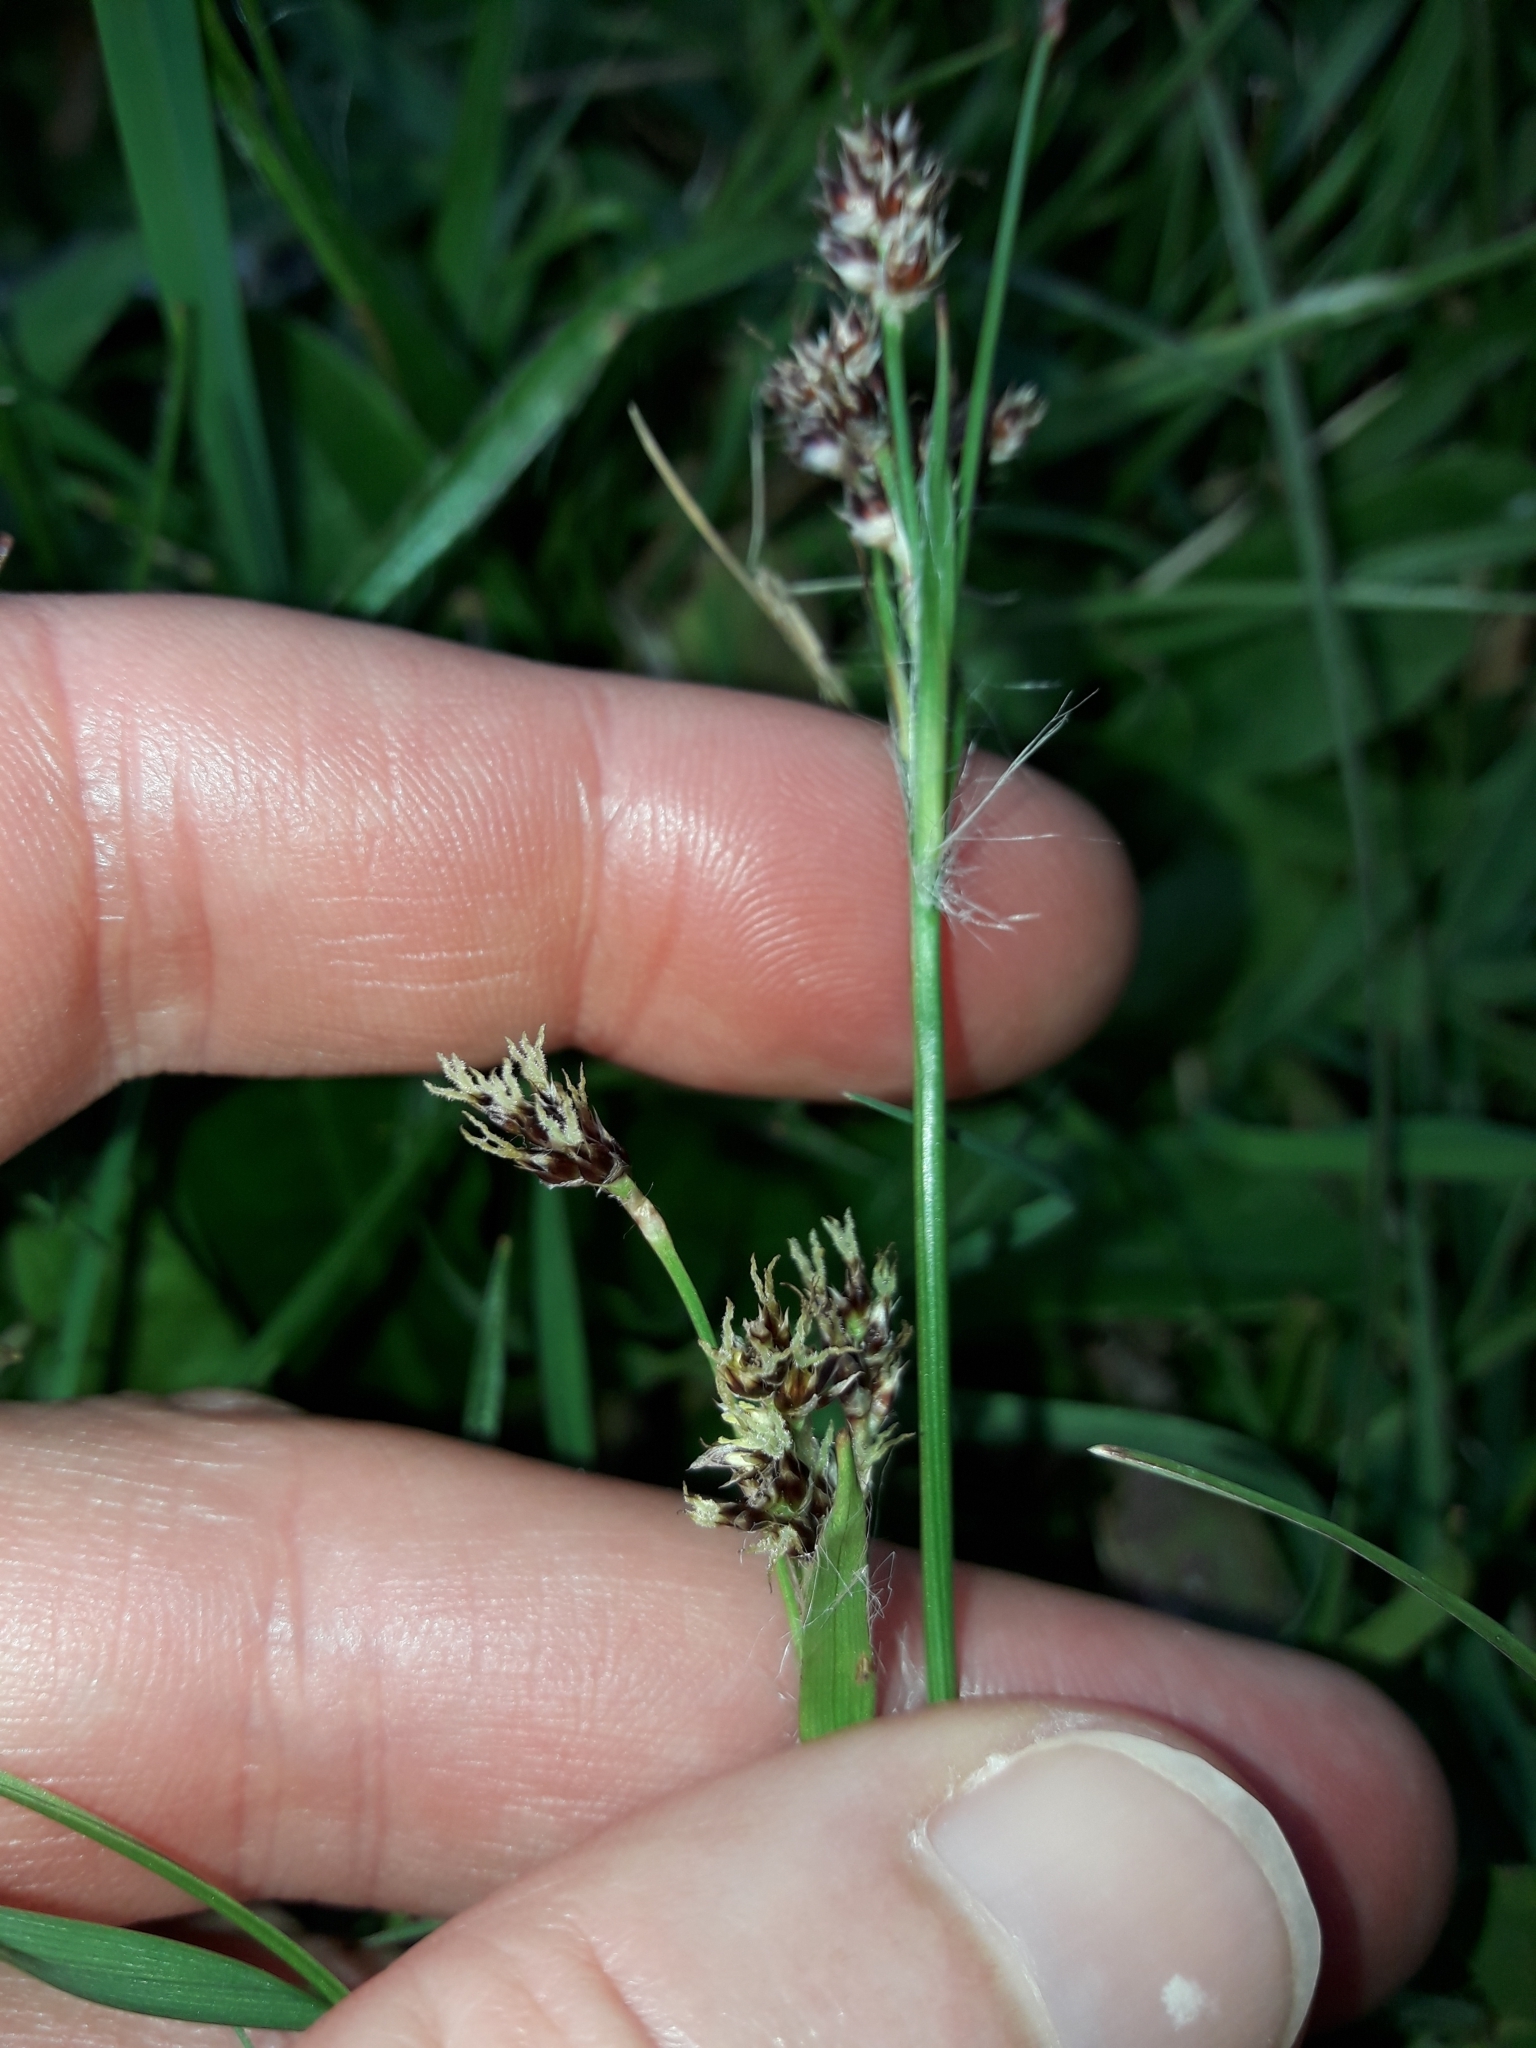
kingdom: Plantae
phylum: Tracheophyta
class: Liliopsida
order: Poales
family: Juncaceae
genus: Luzula
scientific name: Luzula campestris
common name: Field wood-rush
